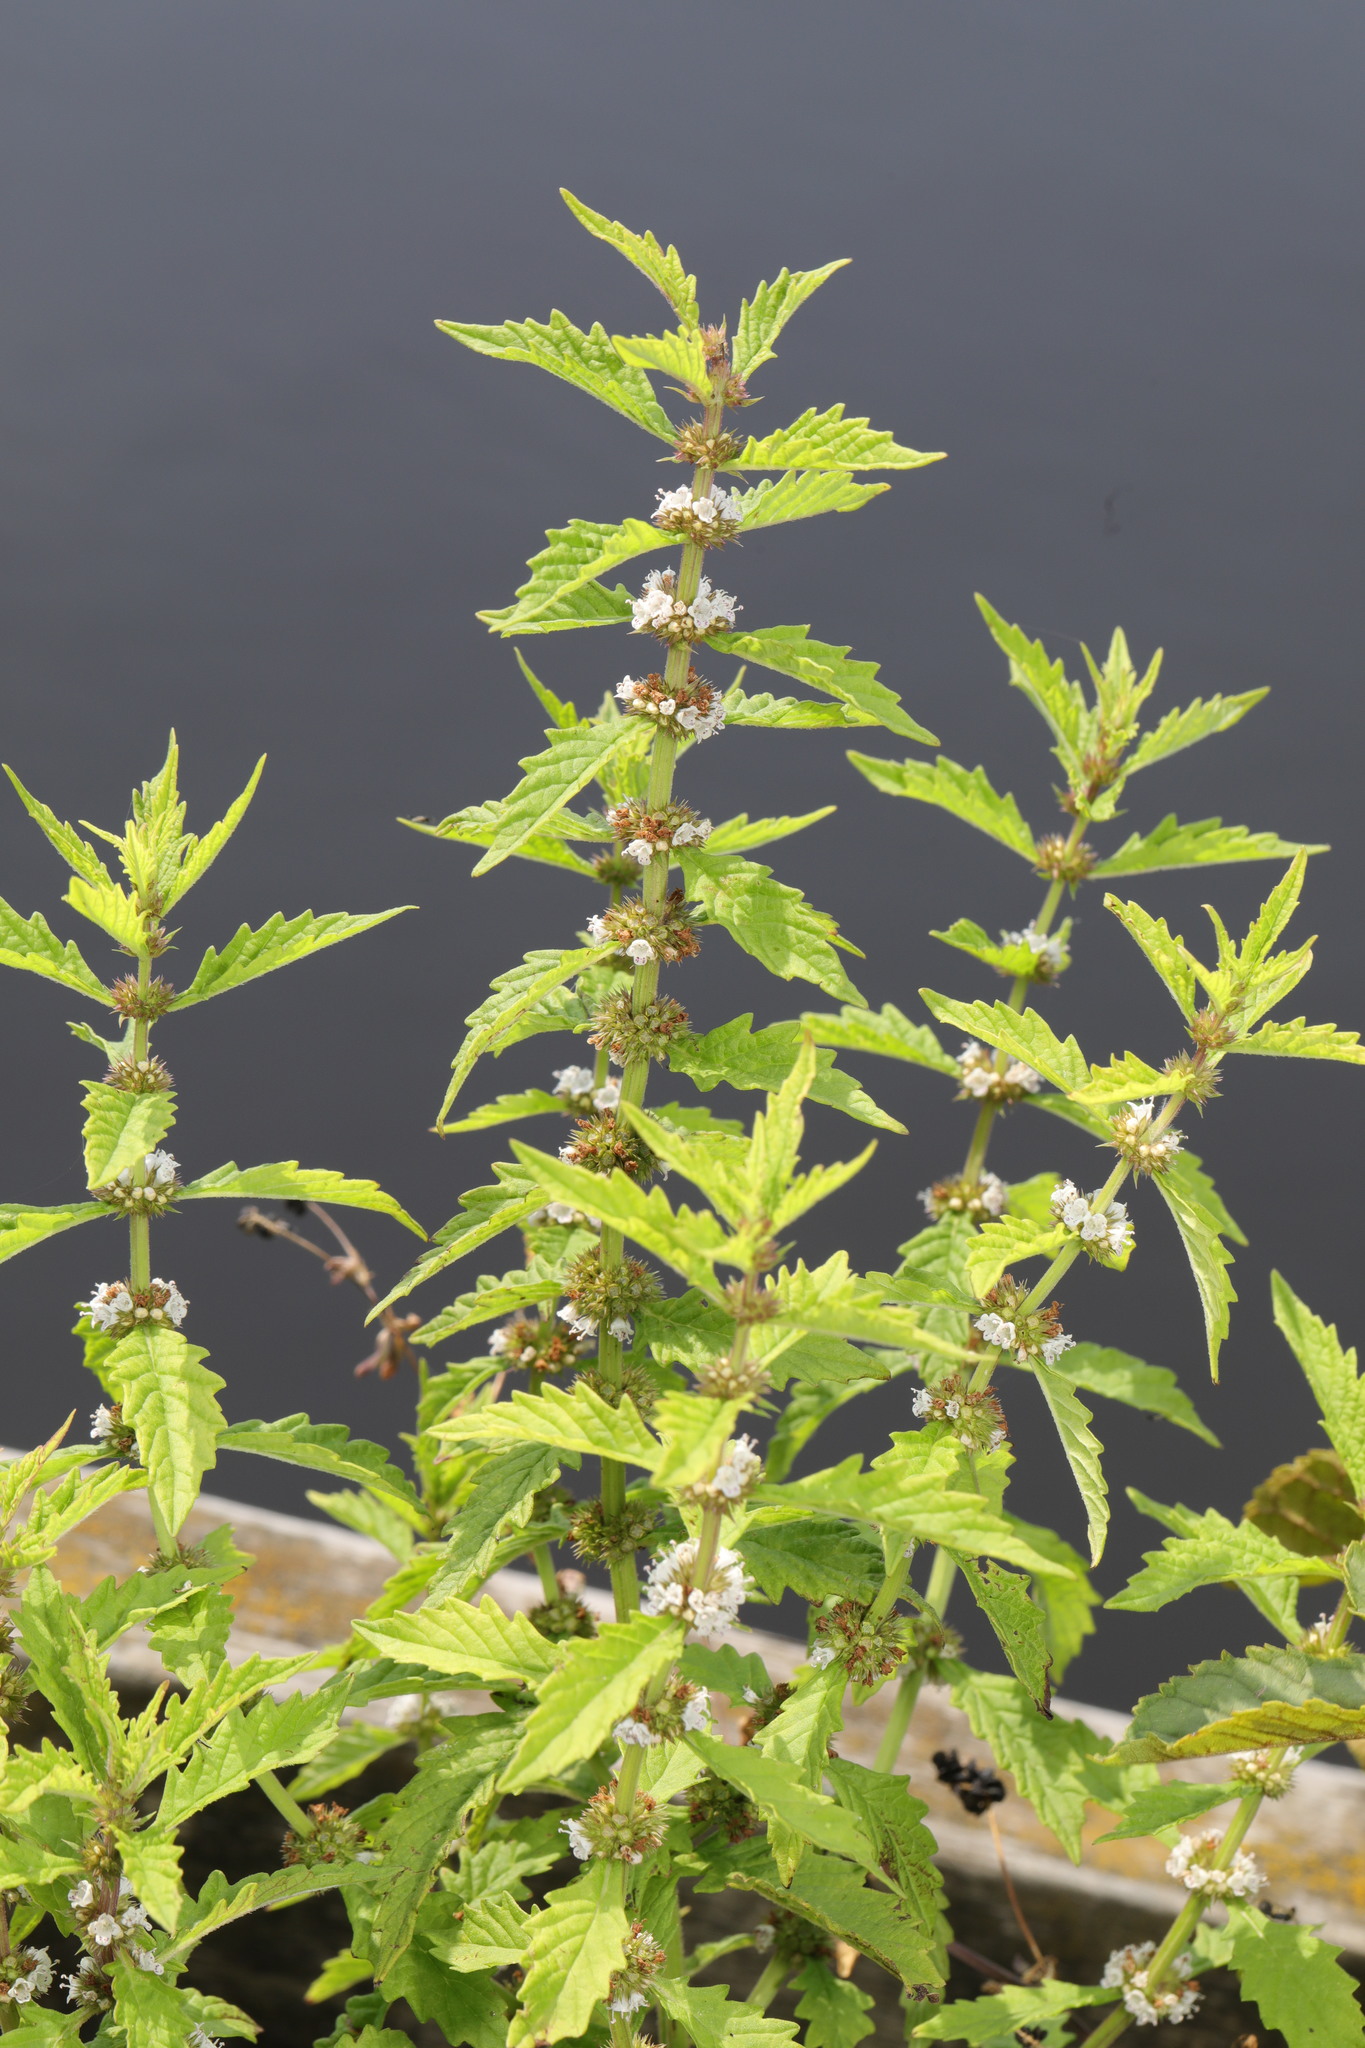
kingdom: Plantae
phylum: Tracheophyta
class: Magnoliopsida
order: Lamiales
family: Lamiaceae
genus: Lycopus
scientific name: Lycopus europaeus
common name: European bugleweed
